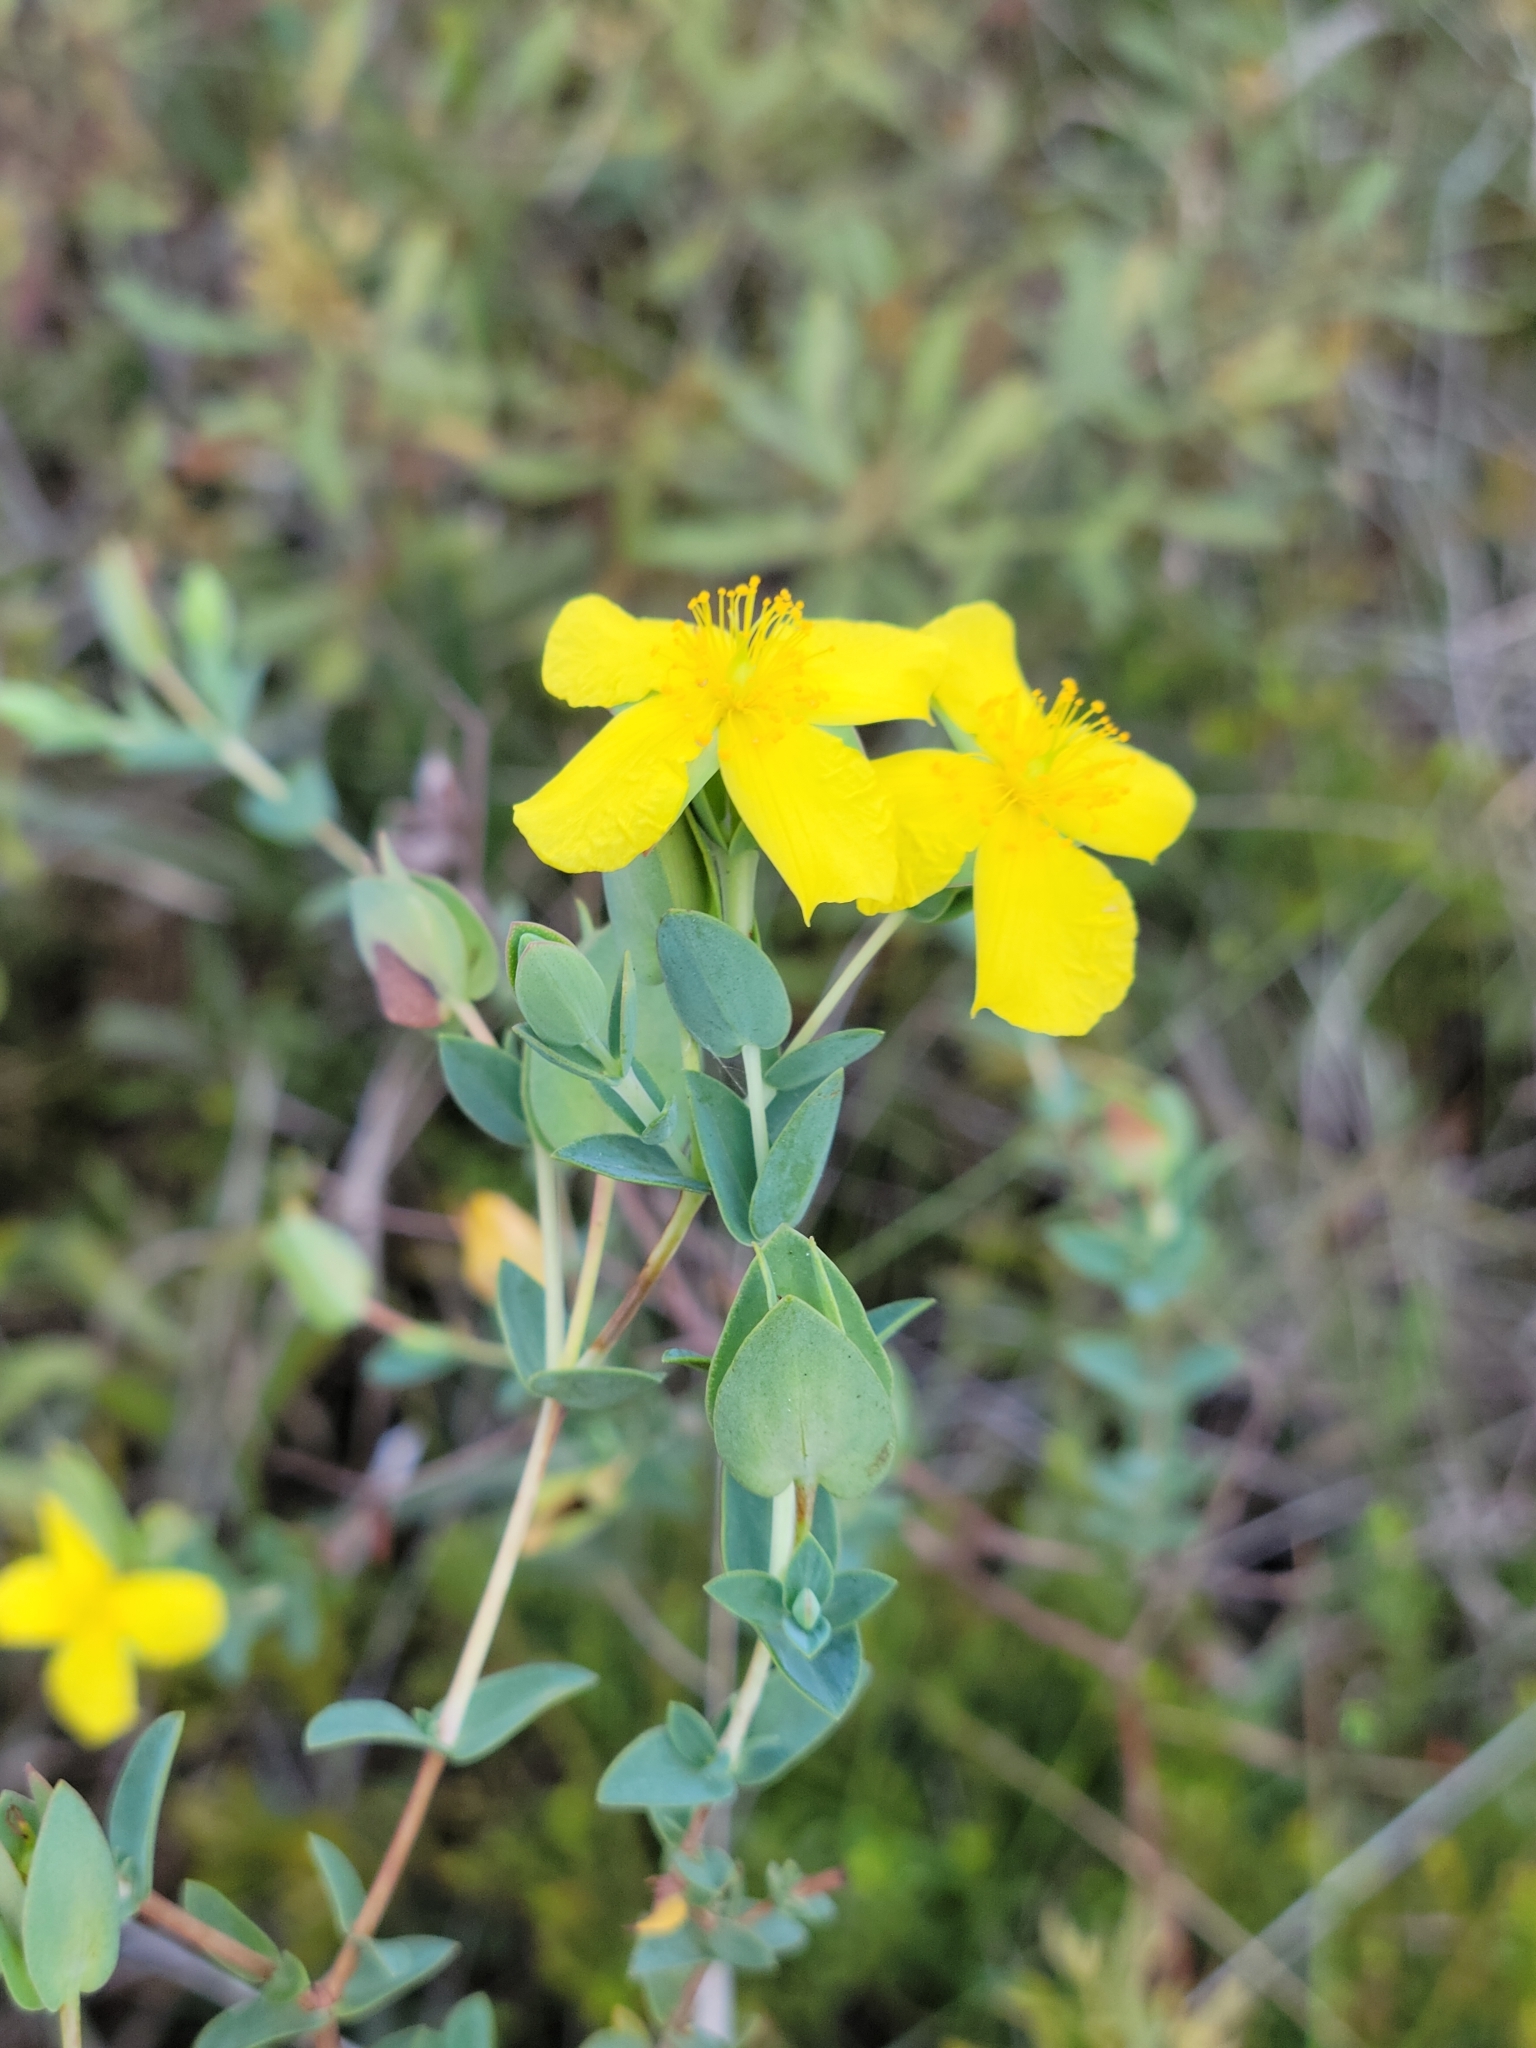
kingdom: Plantae
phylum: Tracheophyta
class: Magnoliopsida
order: Malpighiales
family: Hypericaceae
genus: Hypericum
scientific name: Hypericum tetrapetalum
